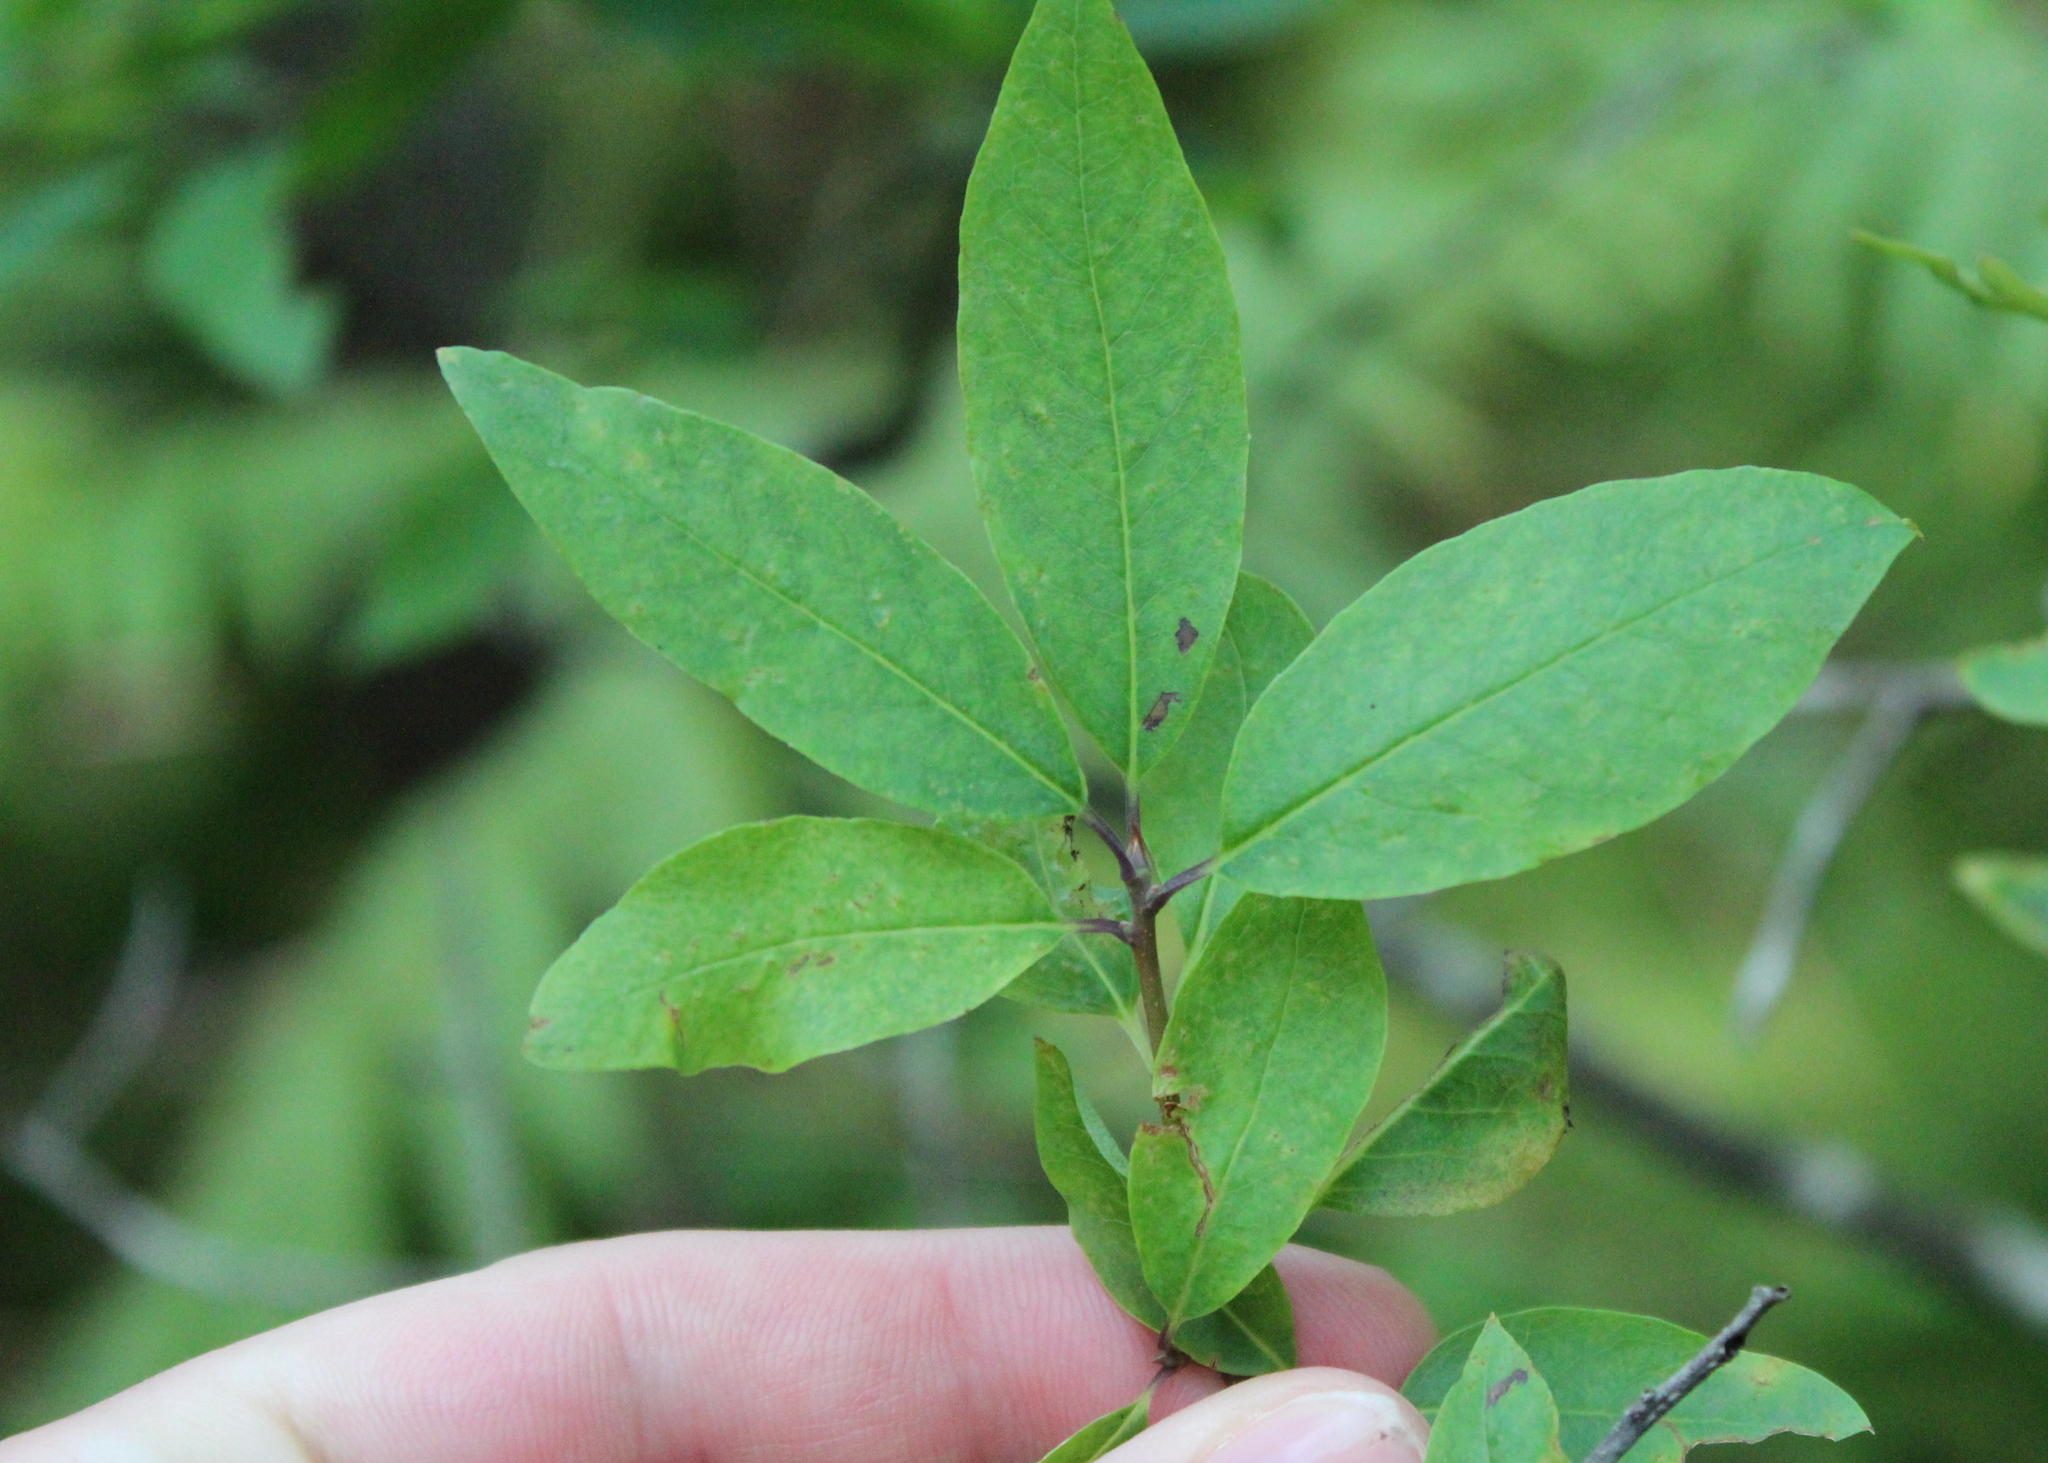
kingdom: Plantae
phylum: Tracheophyta
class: Magnoliopsida
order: Aquifoliales
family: Aquifoliaceae
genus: Ilex
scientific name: Ilex mucronata
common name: Catberry
